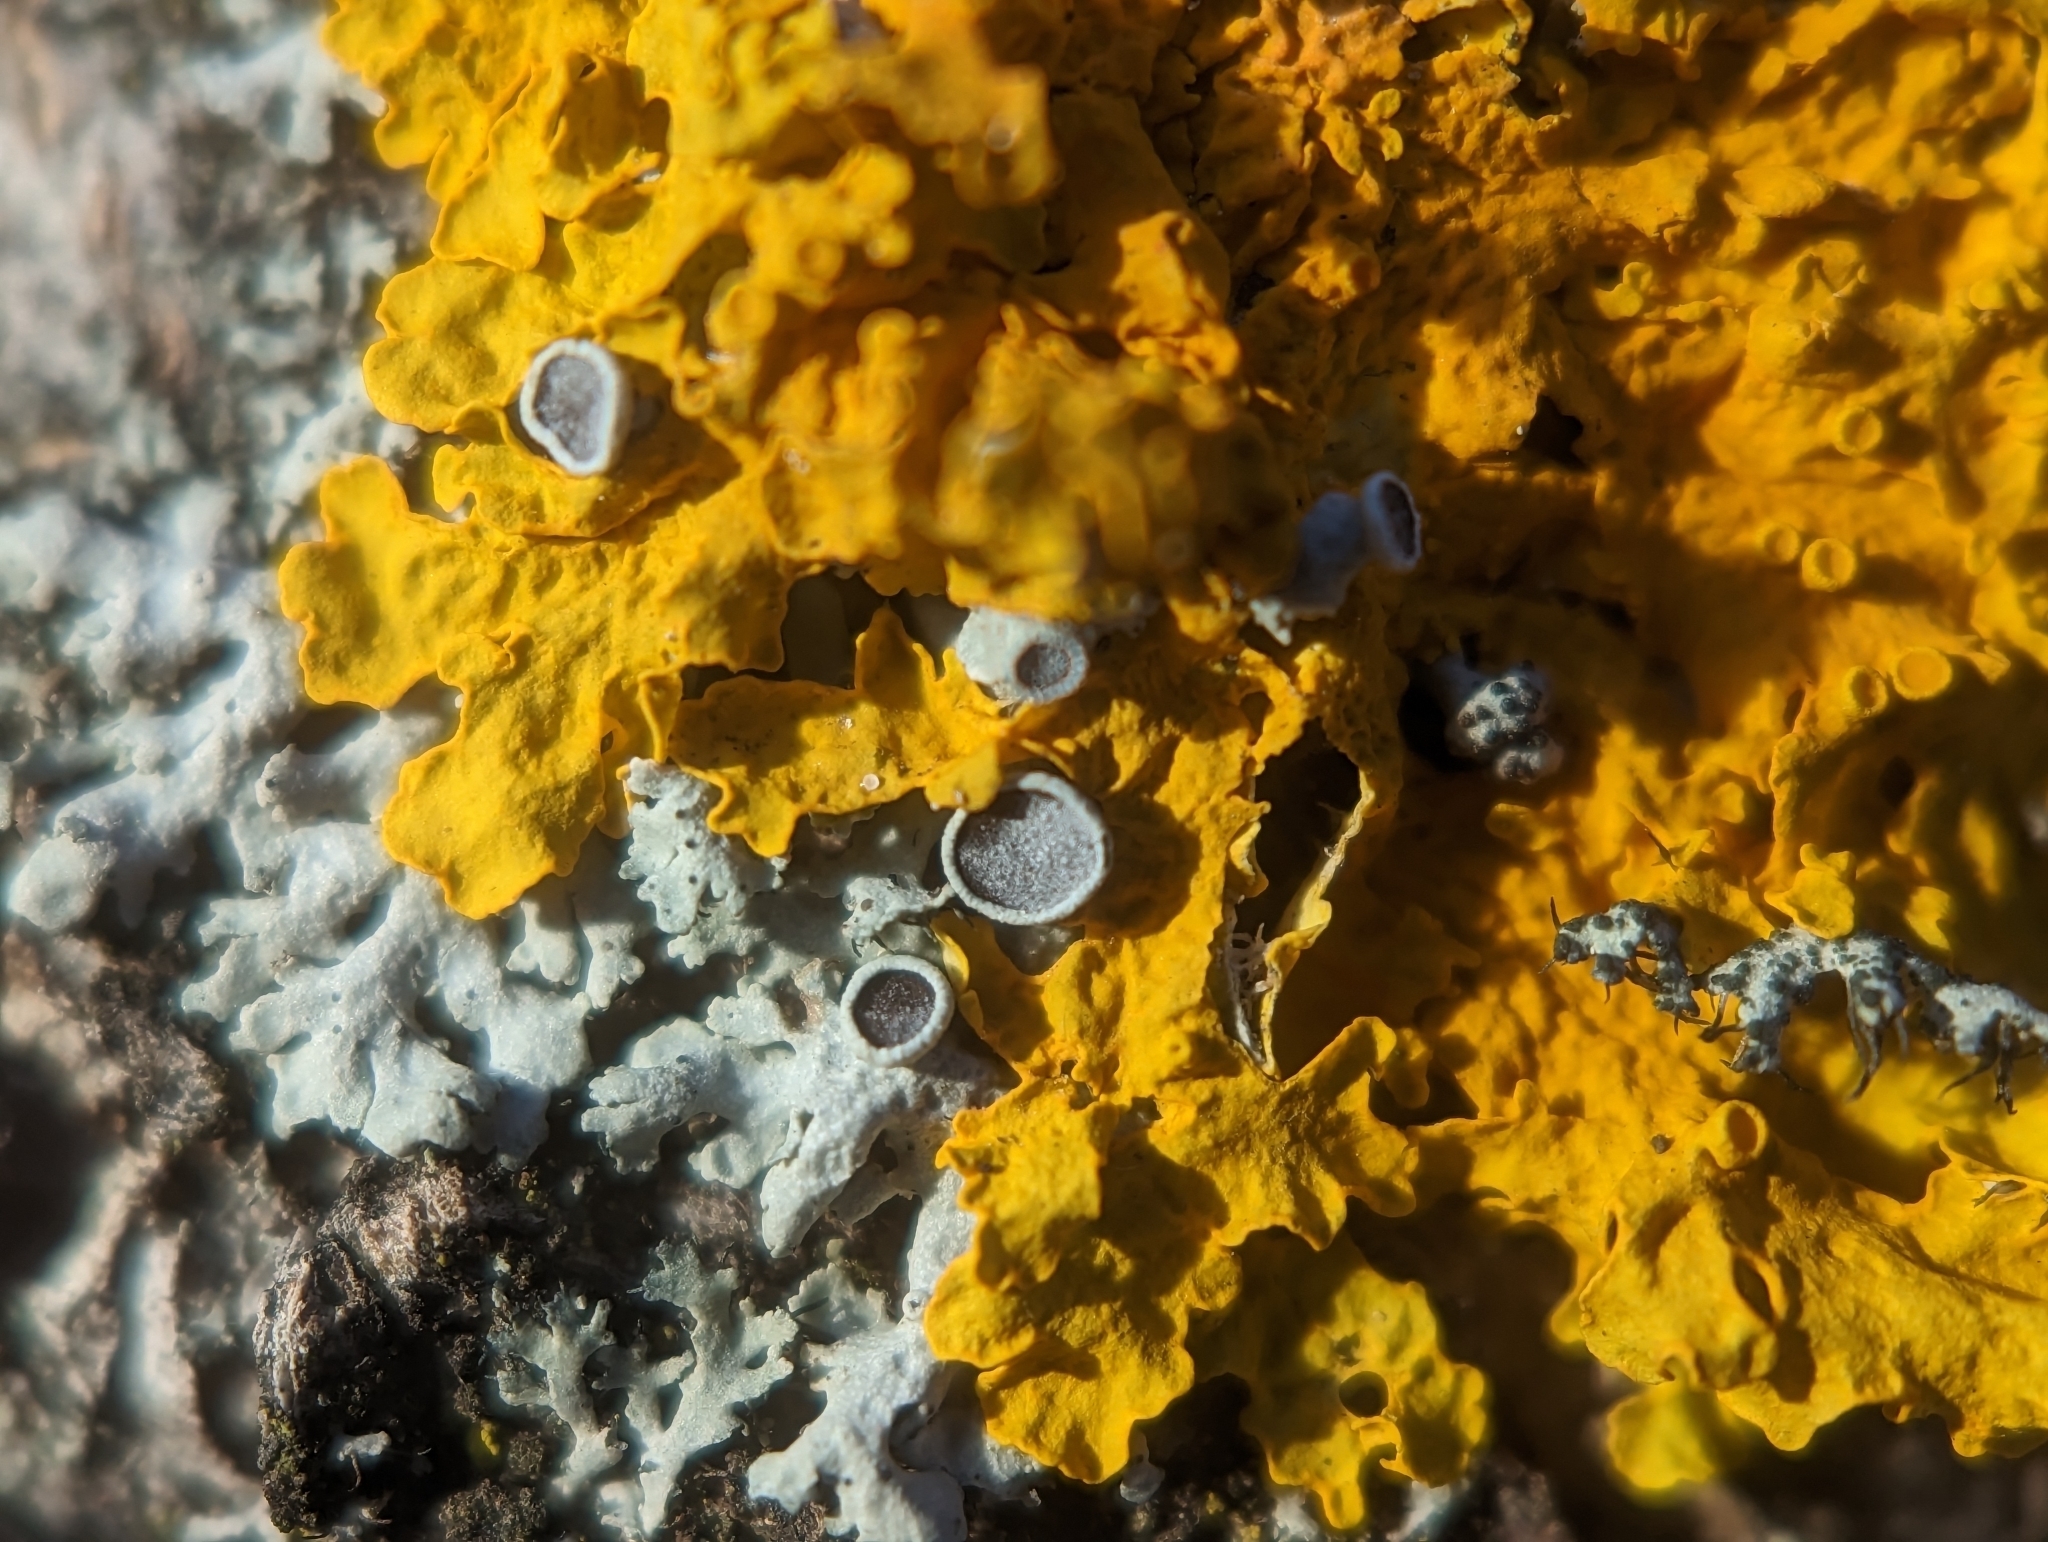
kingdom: Fungi
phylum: Ascomycota
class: Lecanoromycetes
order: Teloschistales
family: Teloschistaceae
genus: Xanthoria
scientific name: Xanthoria parietina
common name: Common orange lichen
